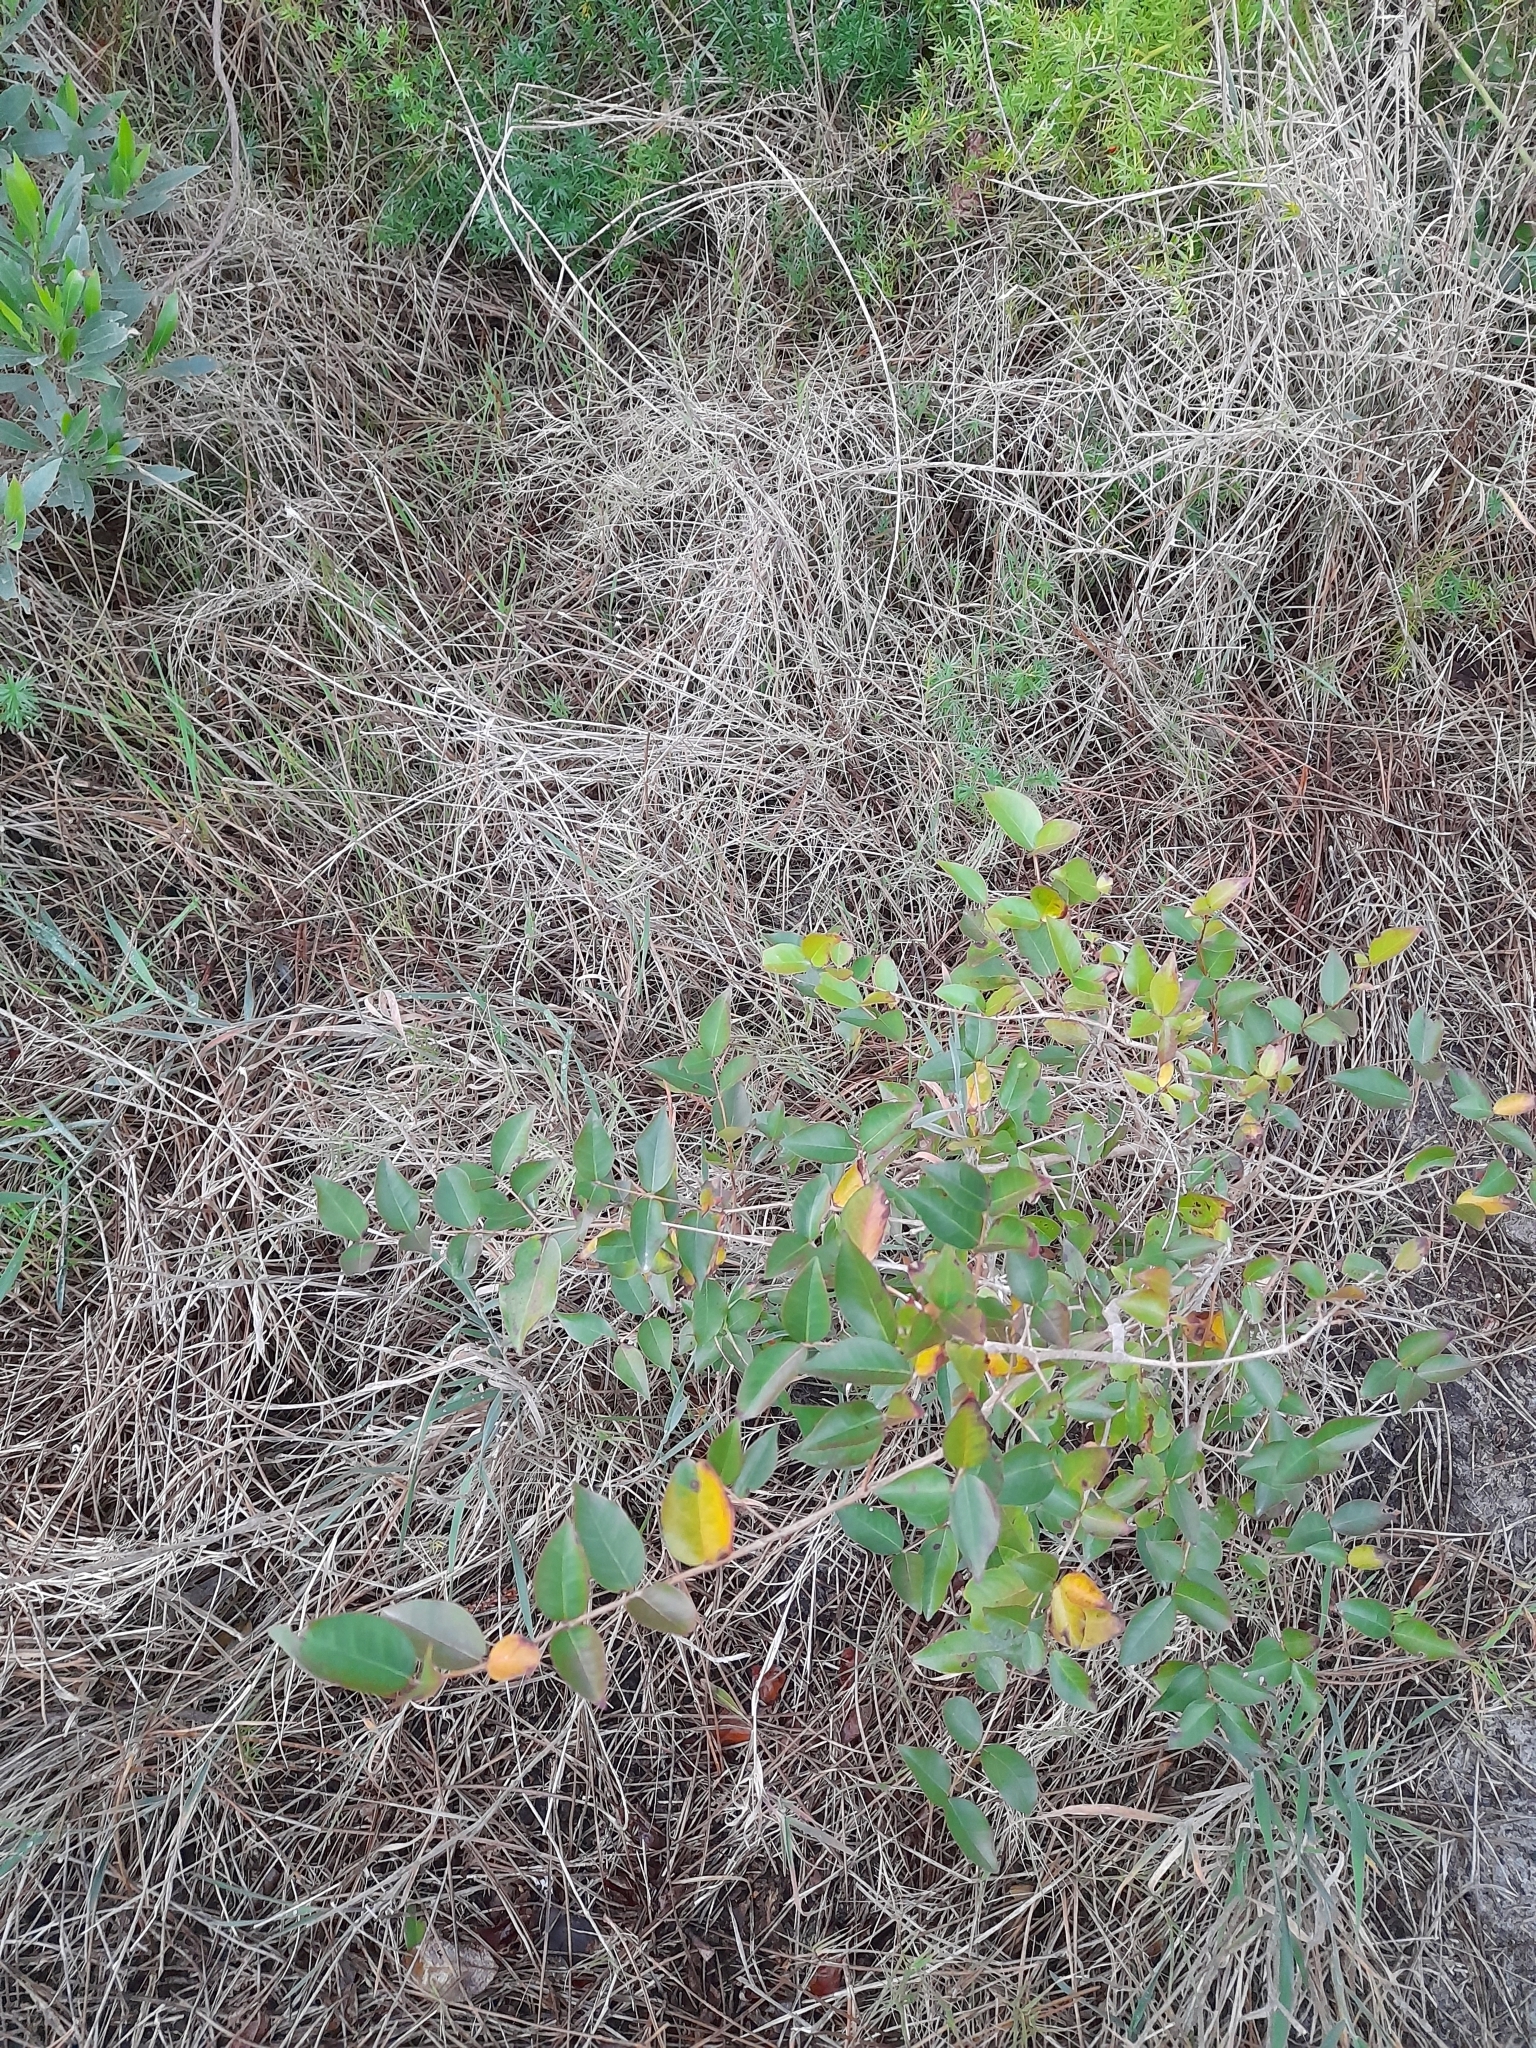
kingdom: Plantae
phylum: Tracheophyta
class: Magnoliopsida
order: Myrtales
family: Myrtaceae
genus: Eugenia
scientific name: Eugenia uniflora
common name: Surinam cherry
